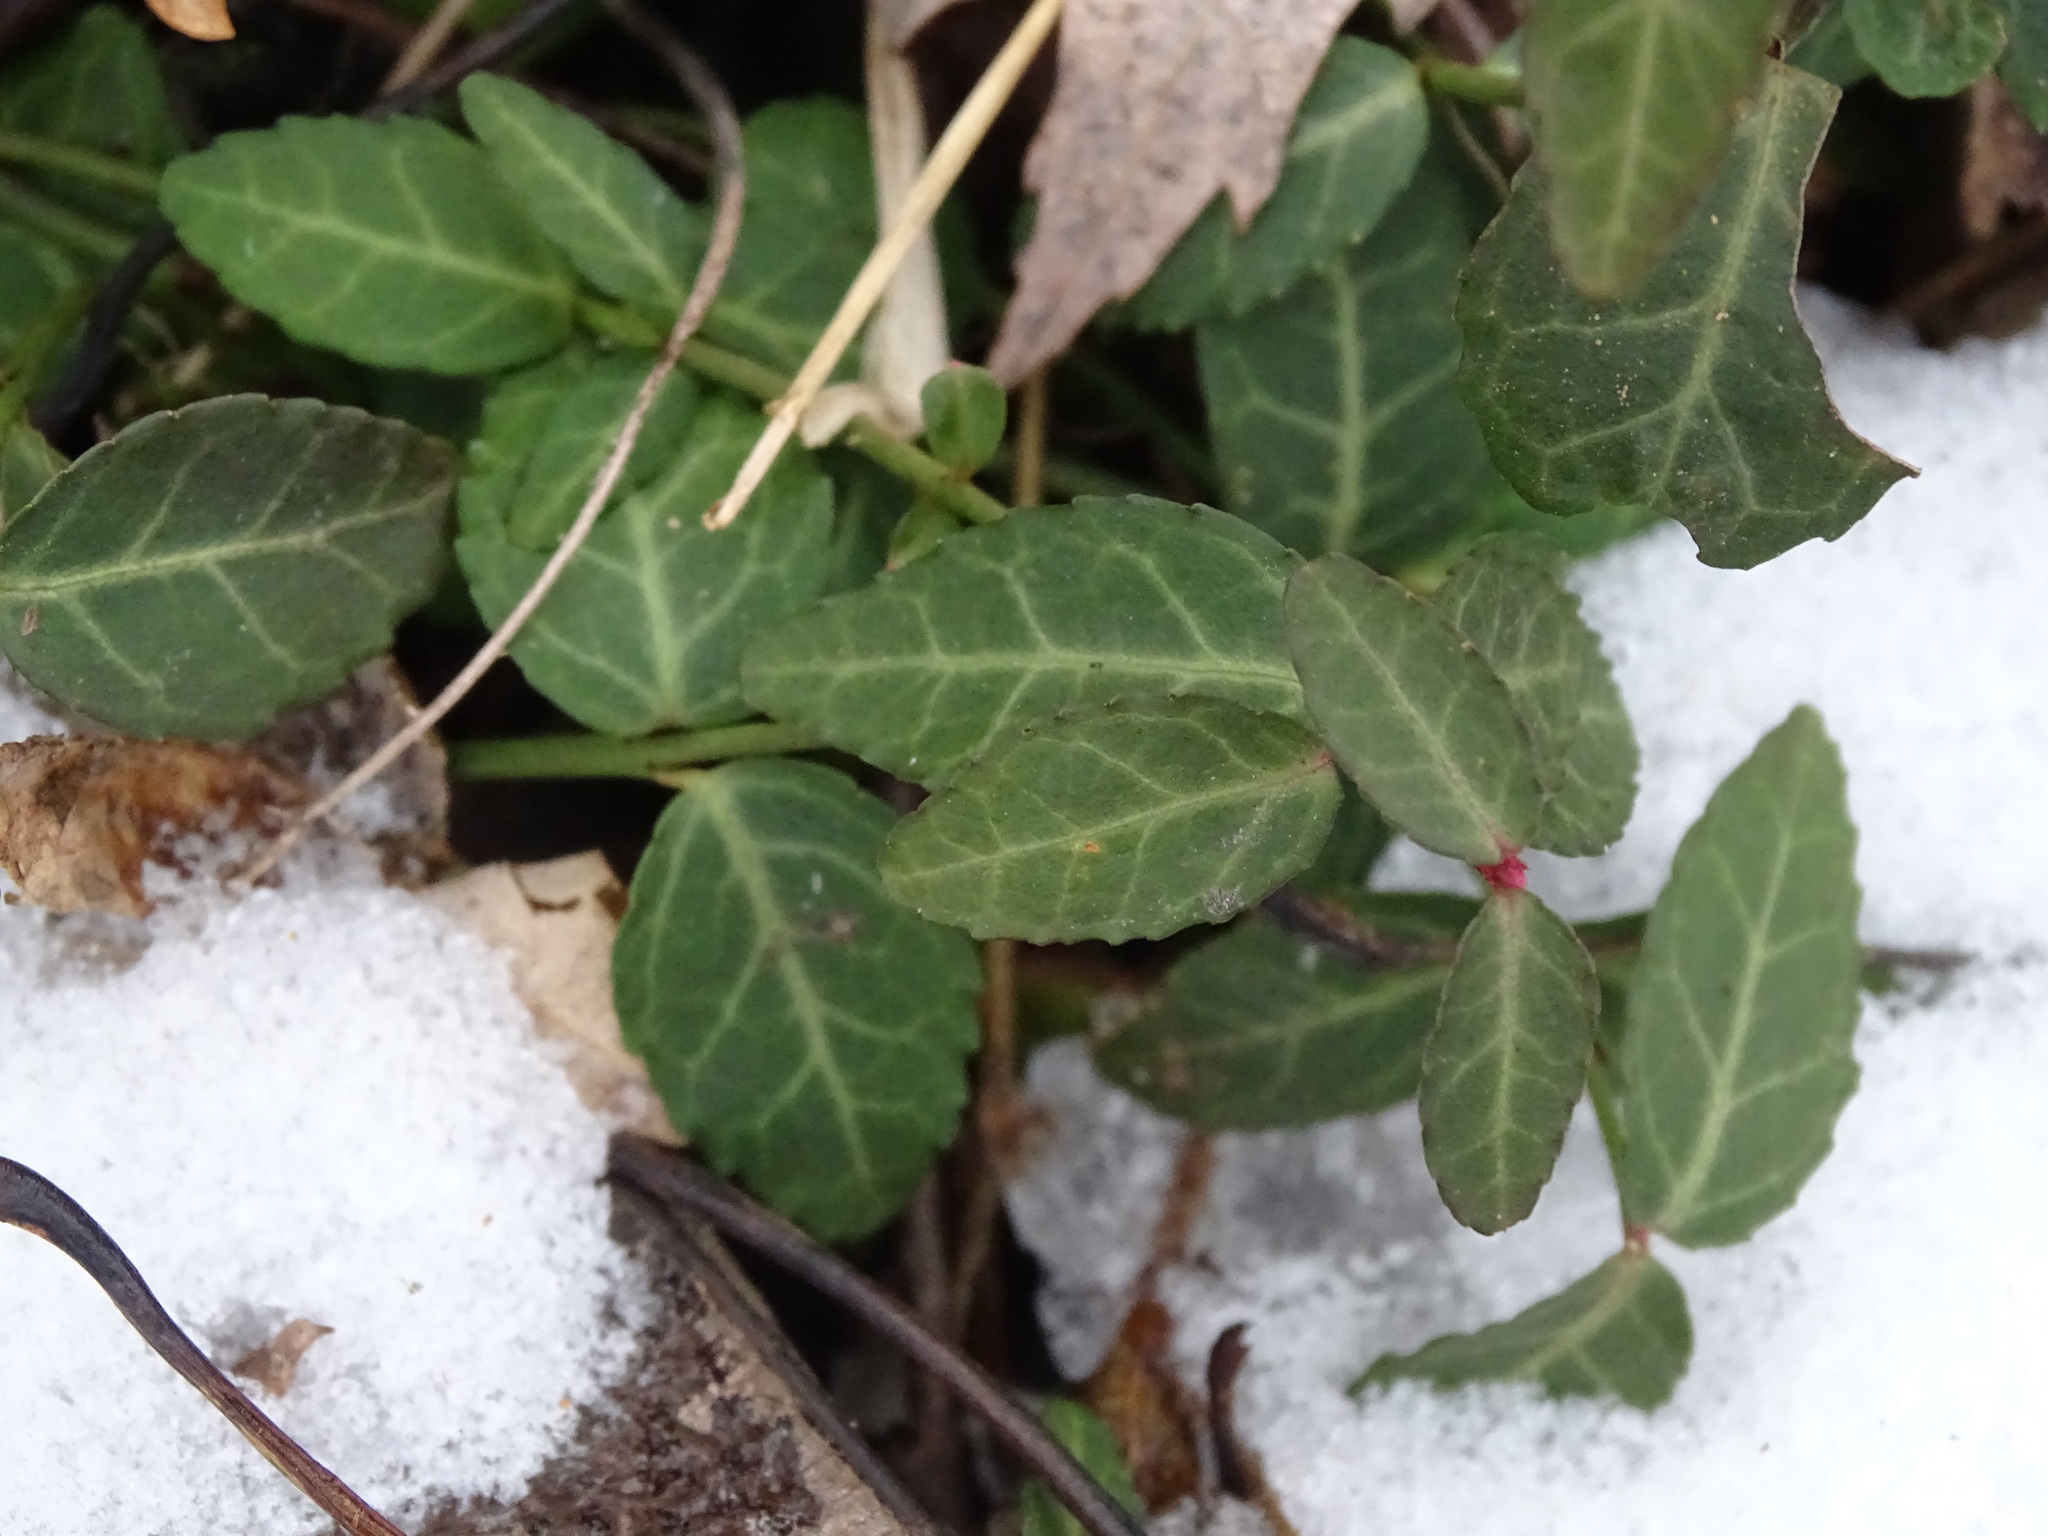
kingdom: Plantae
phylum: Tracheophyta
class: Magnoliopsida
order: Celastrales
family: Celastraceae
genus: Euonymus
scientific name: Euonymus fortunei
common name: Climbing euonymus
